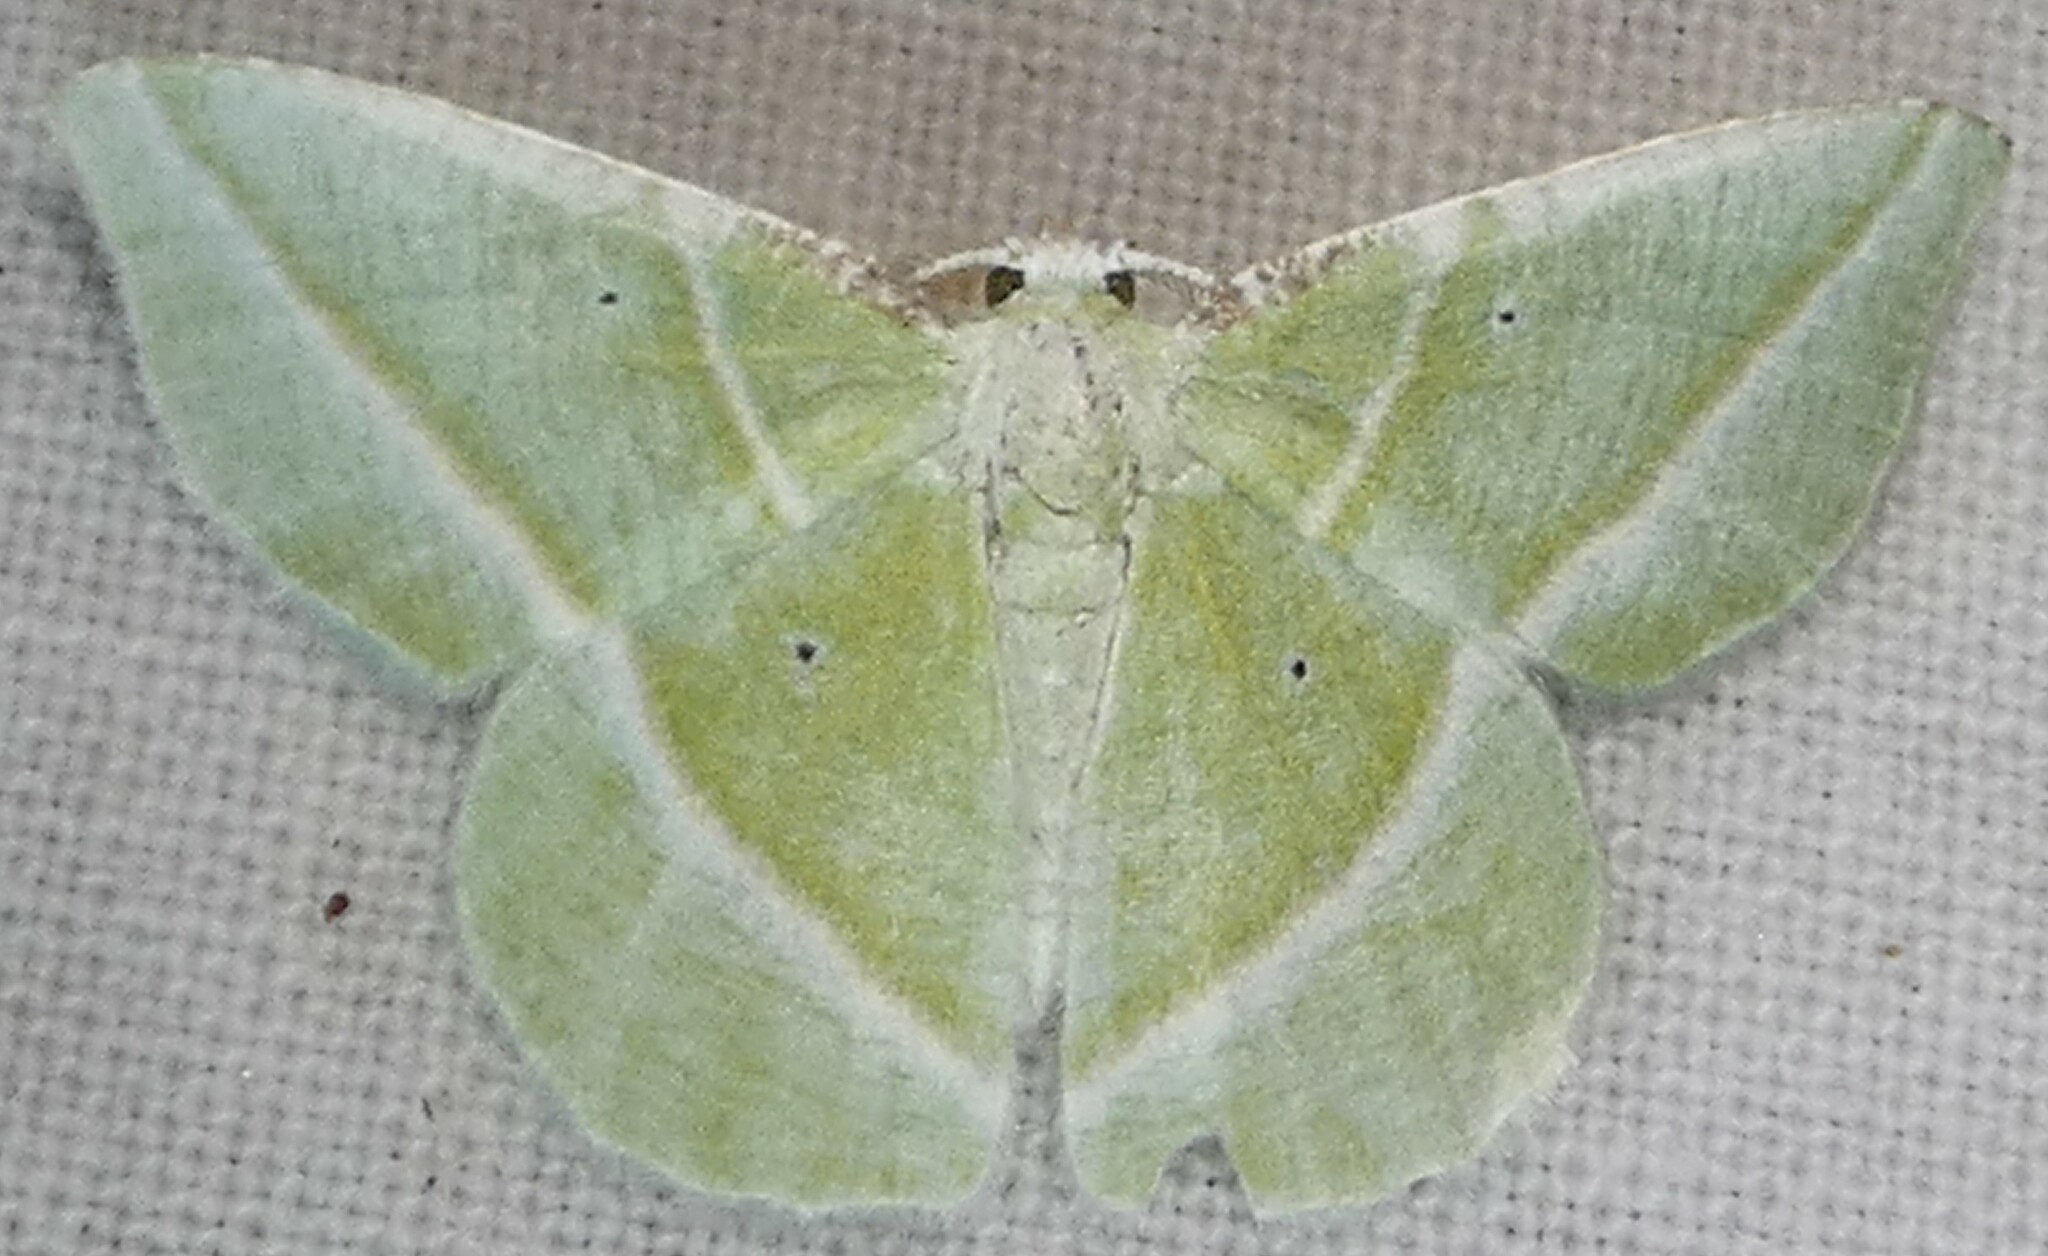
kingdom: Animalia
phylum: Arthropoda
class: Insecta
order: Lepidoptera
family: Geometridae
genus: Dichorda
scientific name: Dichorda iridaria
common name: Showy emerald
